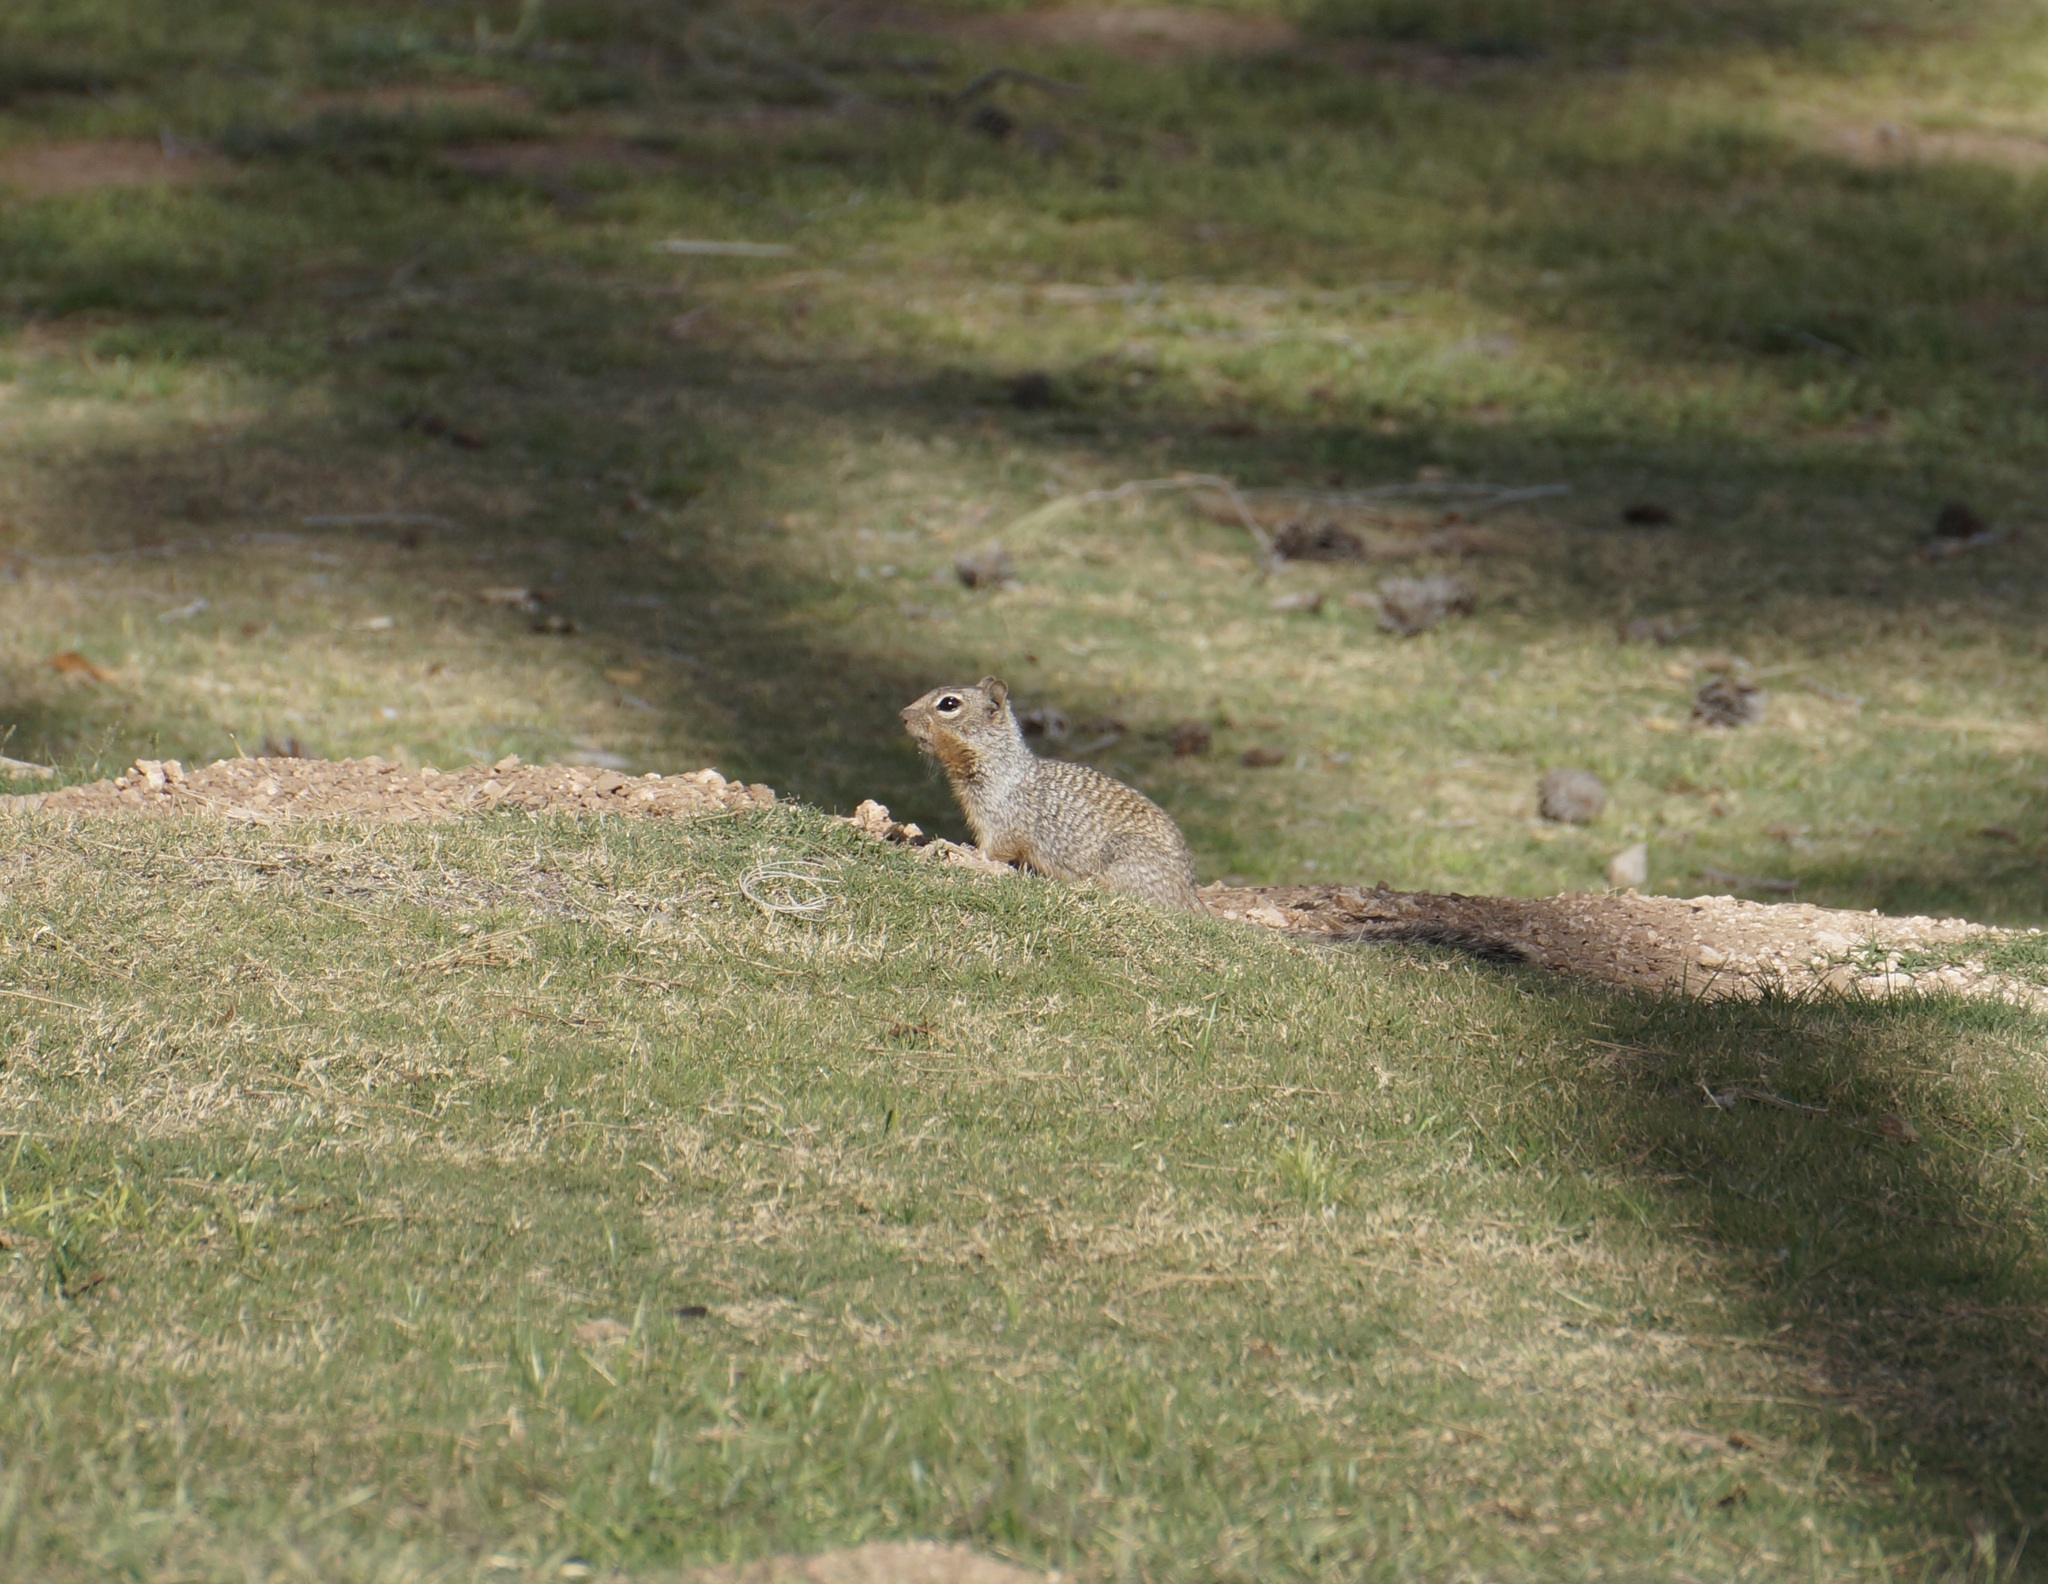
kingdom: Animalia
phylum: Chordata
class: Mammalia
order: Rodentia
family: Sciuridae
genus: Otospermophilus
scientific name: Otospermophilus variegatus
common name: Rock squirrel
